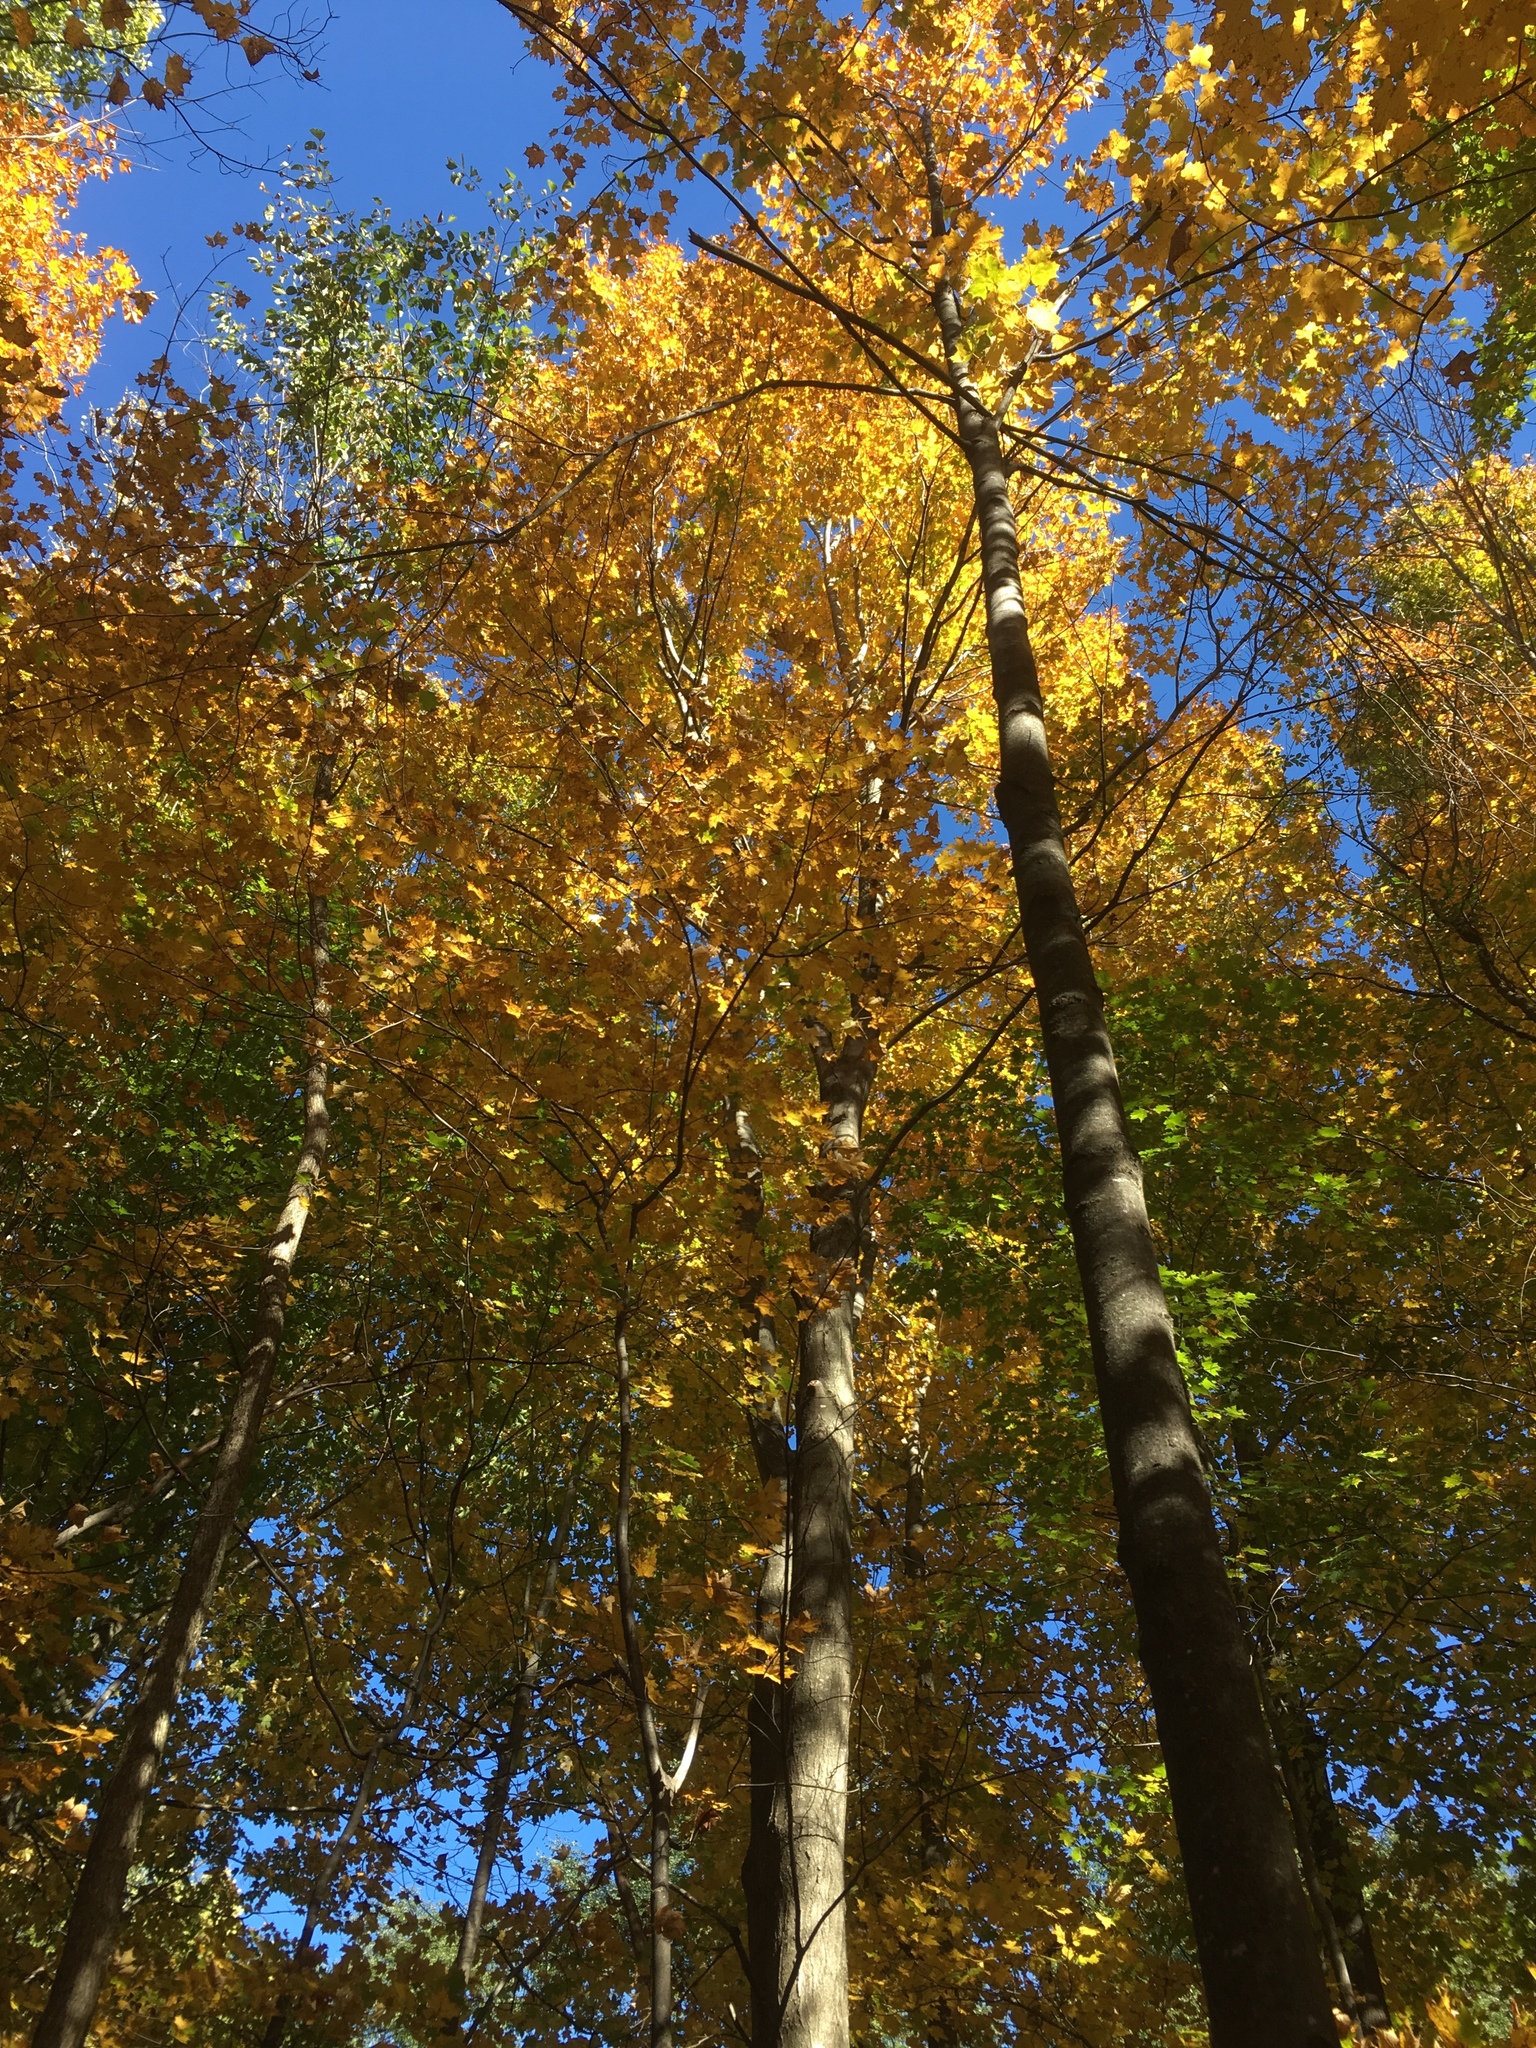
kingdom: Plantae
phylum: Tracheophyta
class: Magnoliopsida
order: Sapindales
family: Sapindaceae
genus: Acer
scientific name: Acer saccharum
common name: Sugar maple
